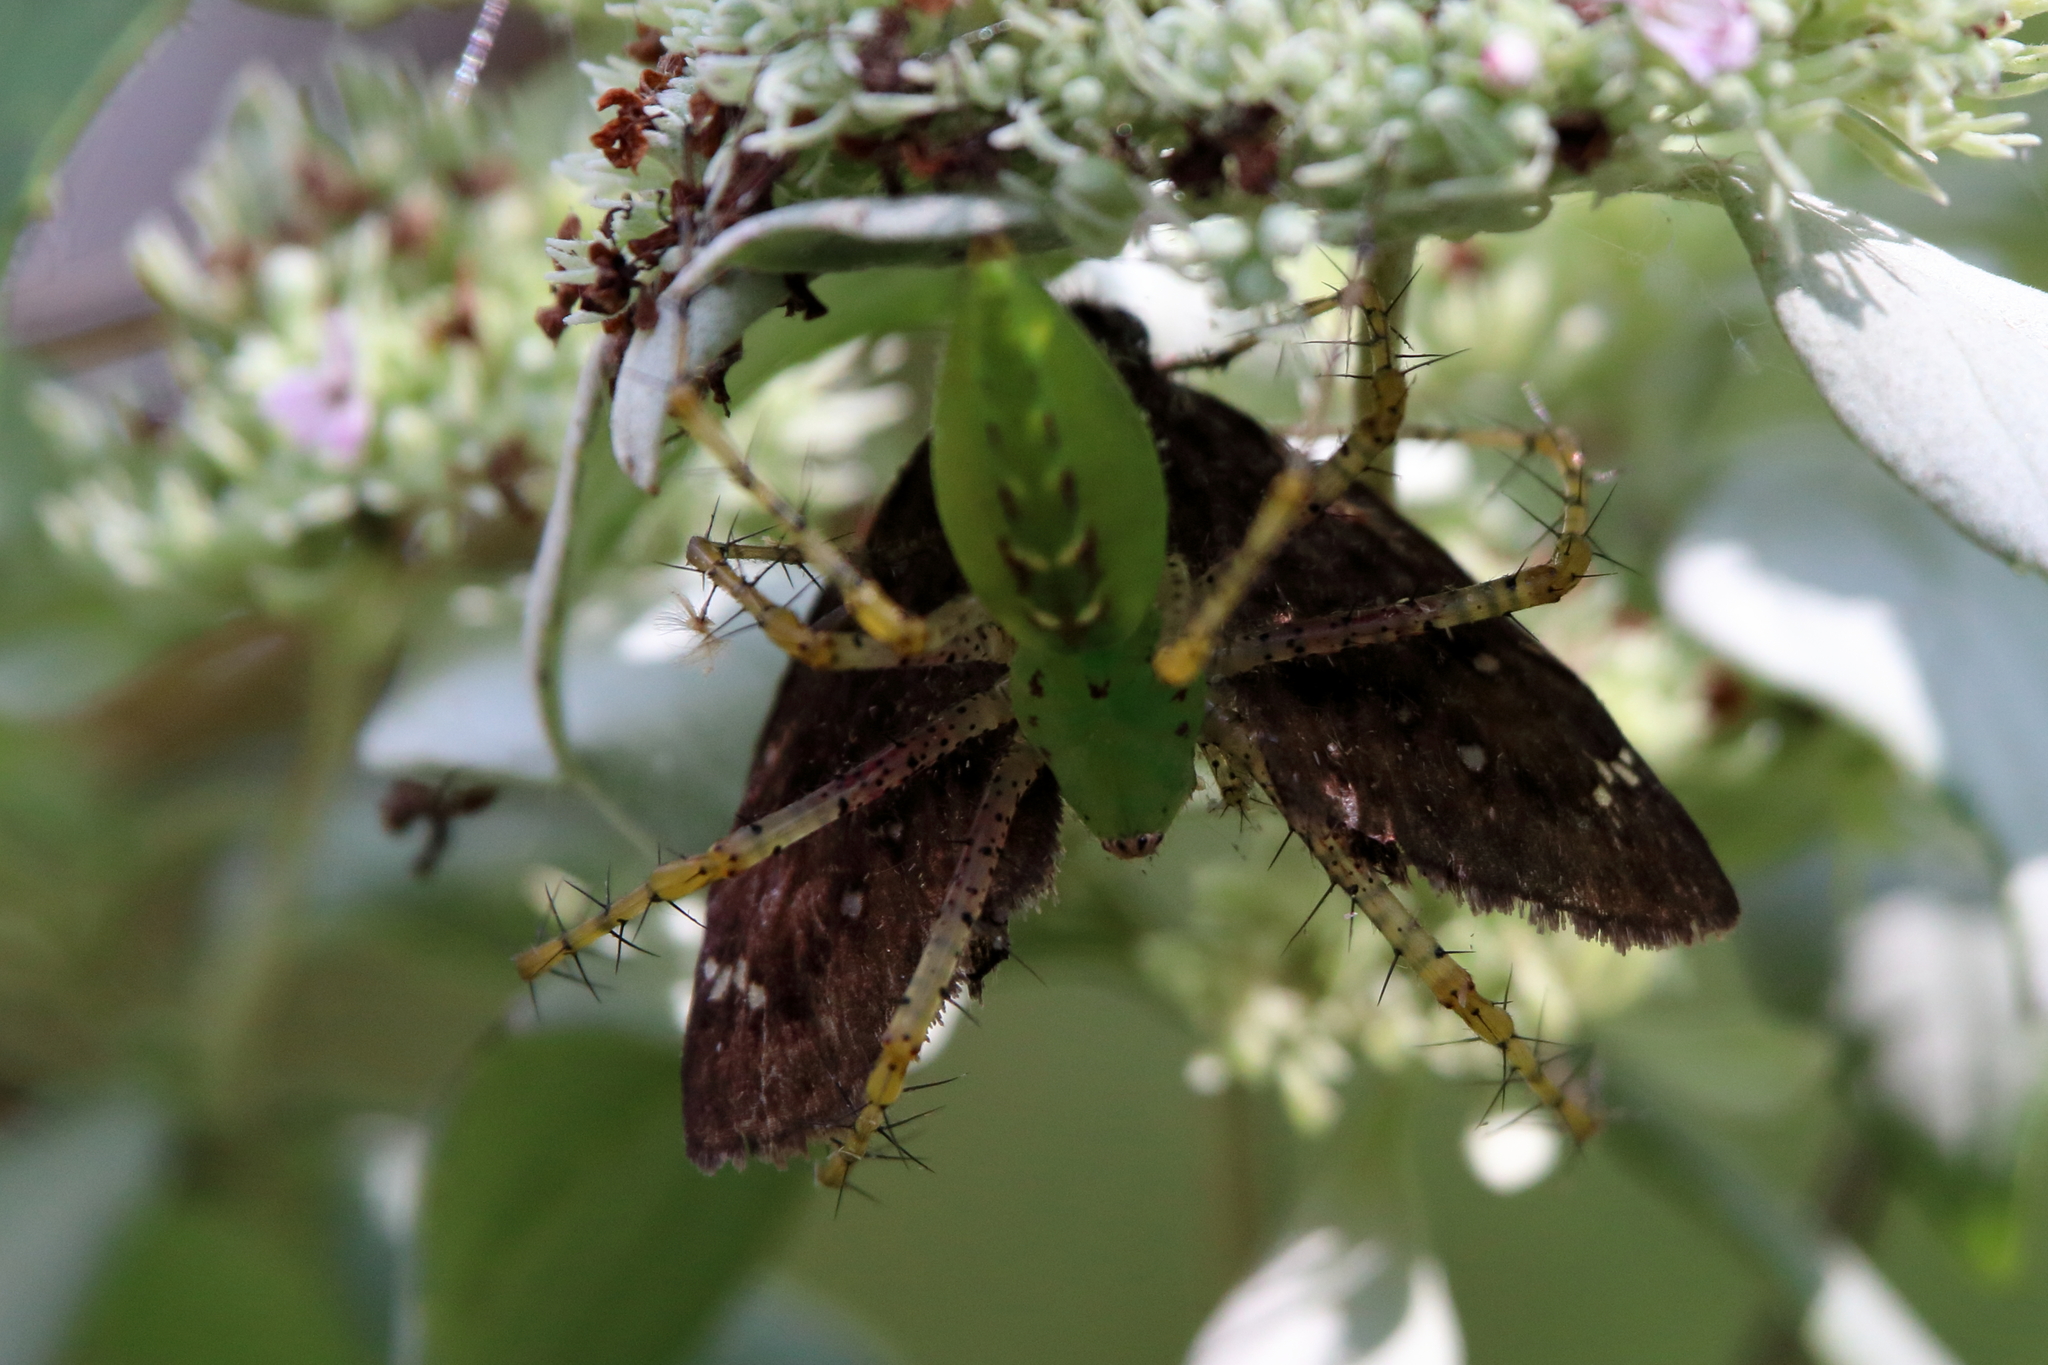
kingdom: Animalia
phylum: Arthropoda
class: Arachnida
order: Araneae
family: Oxyopidae
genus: Peucetia
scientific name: Peucetia viridans
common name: Lynx spiders
